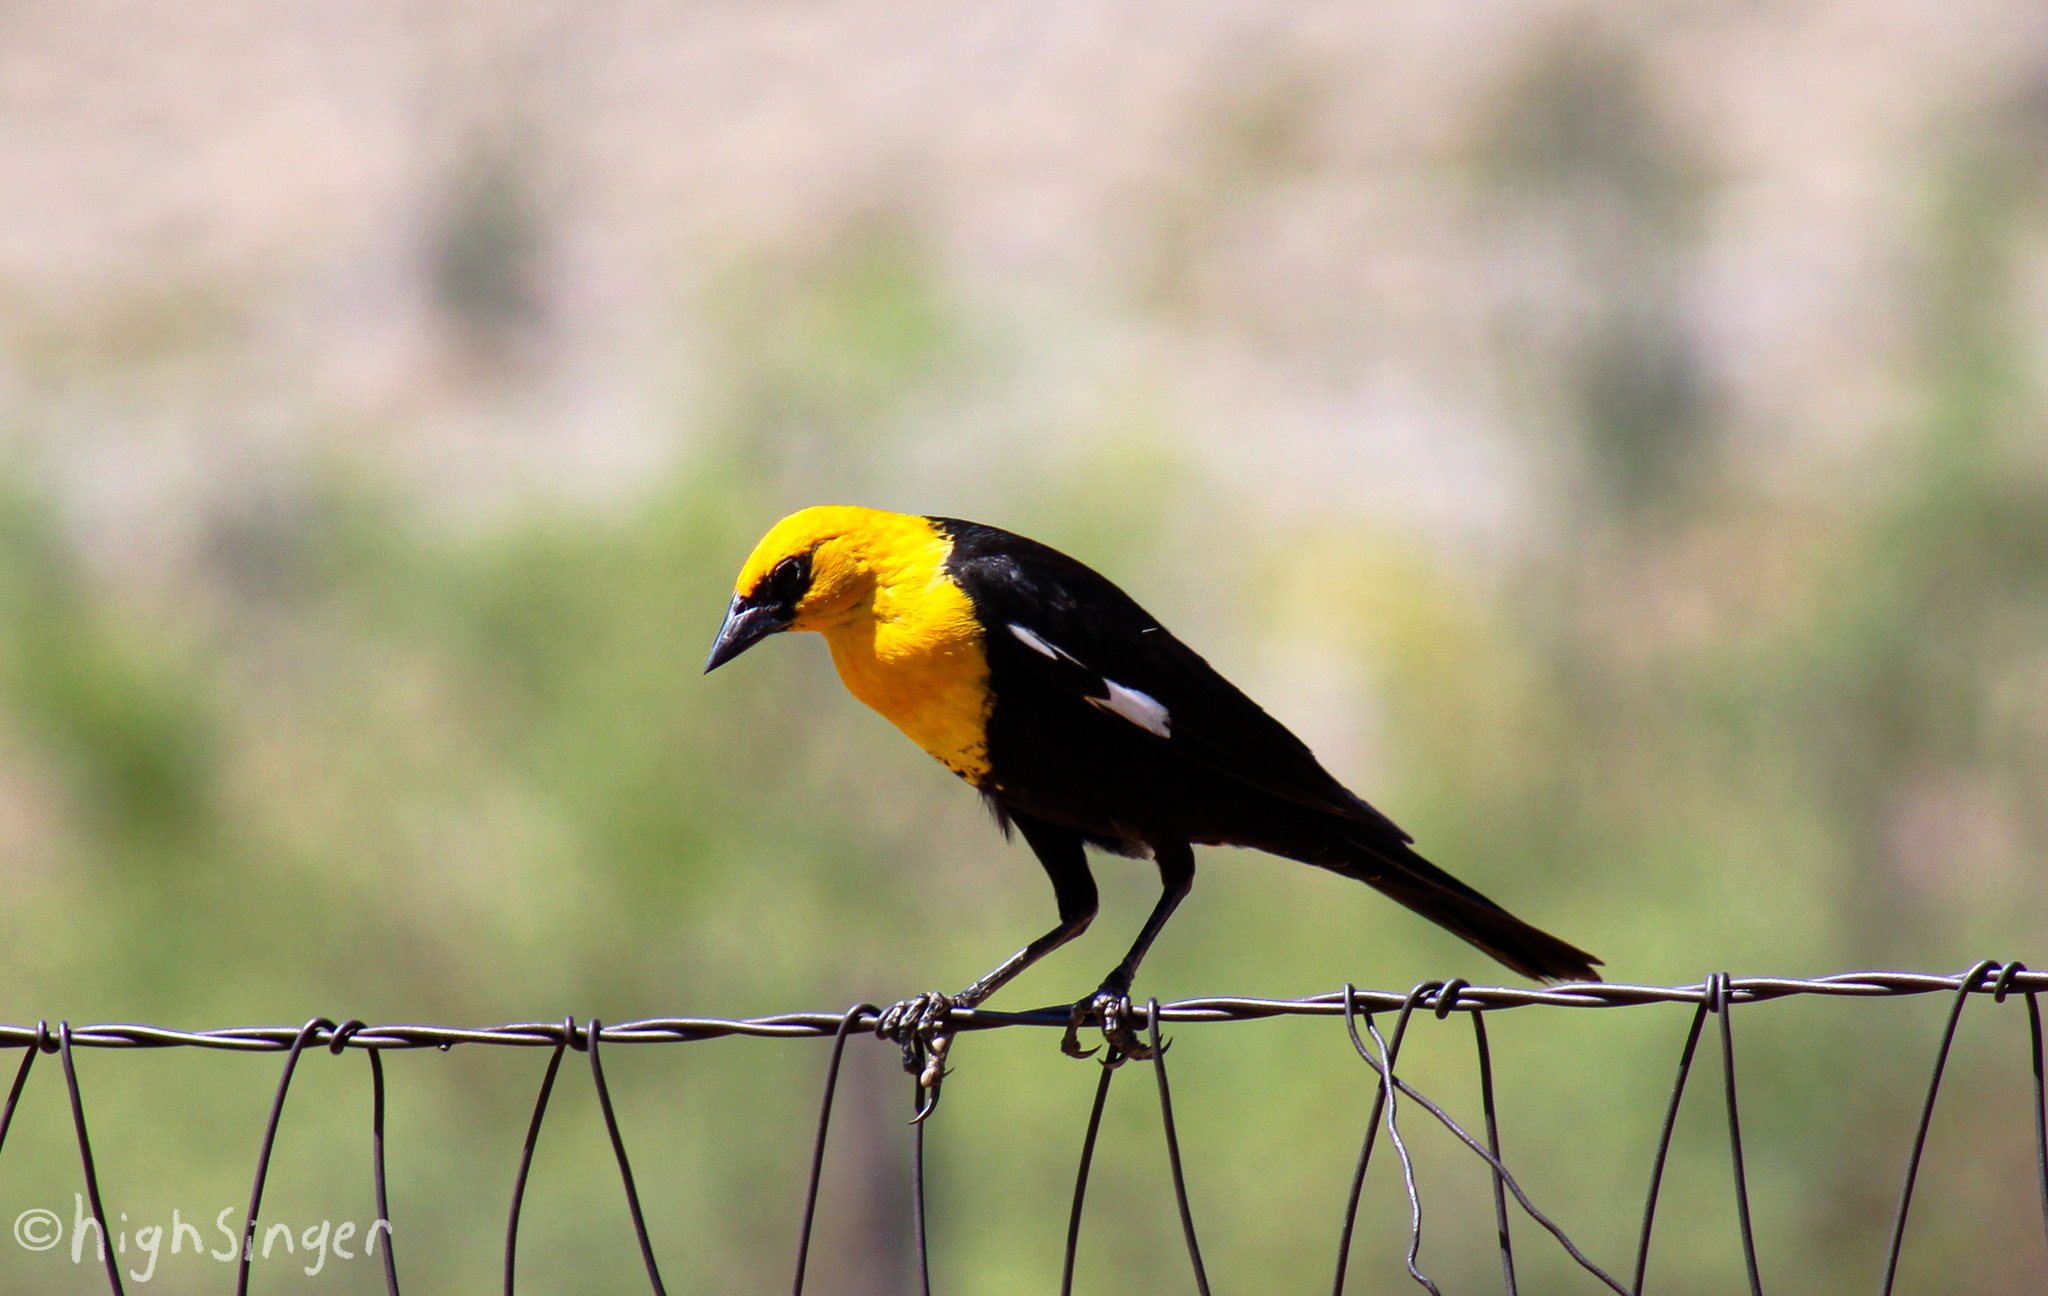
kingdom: Animalia
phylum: Chordata
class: Aves
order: Passeriformes
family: Icteridae
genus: Xanthocephalus
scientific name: Xanthocephalus xanthocephalus
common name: Yellow-headed blackbird
